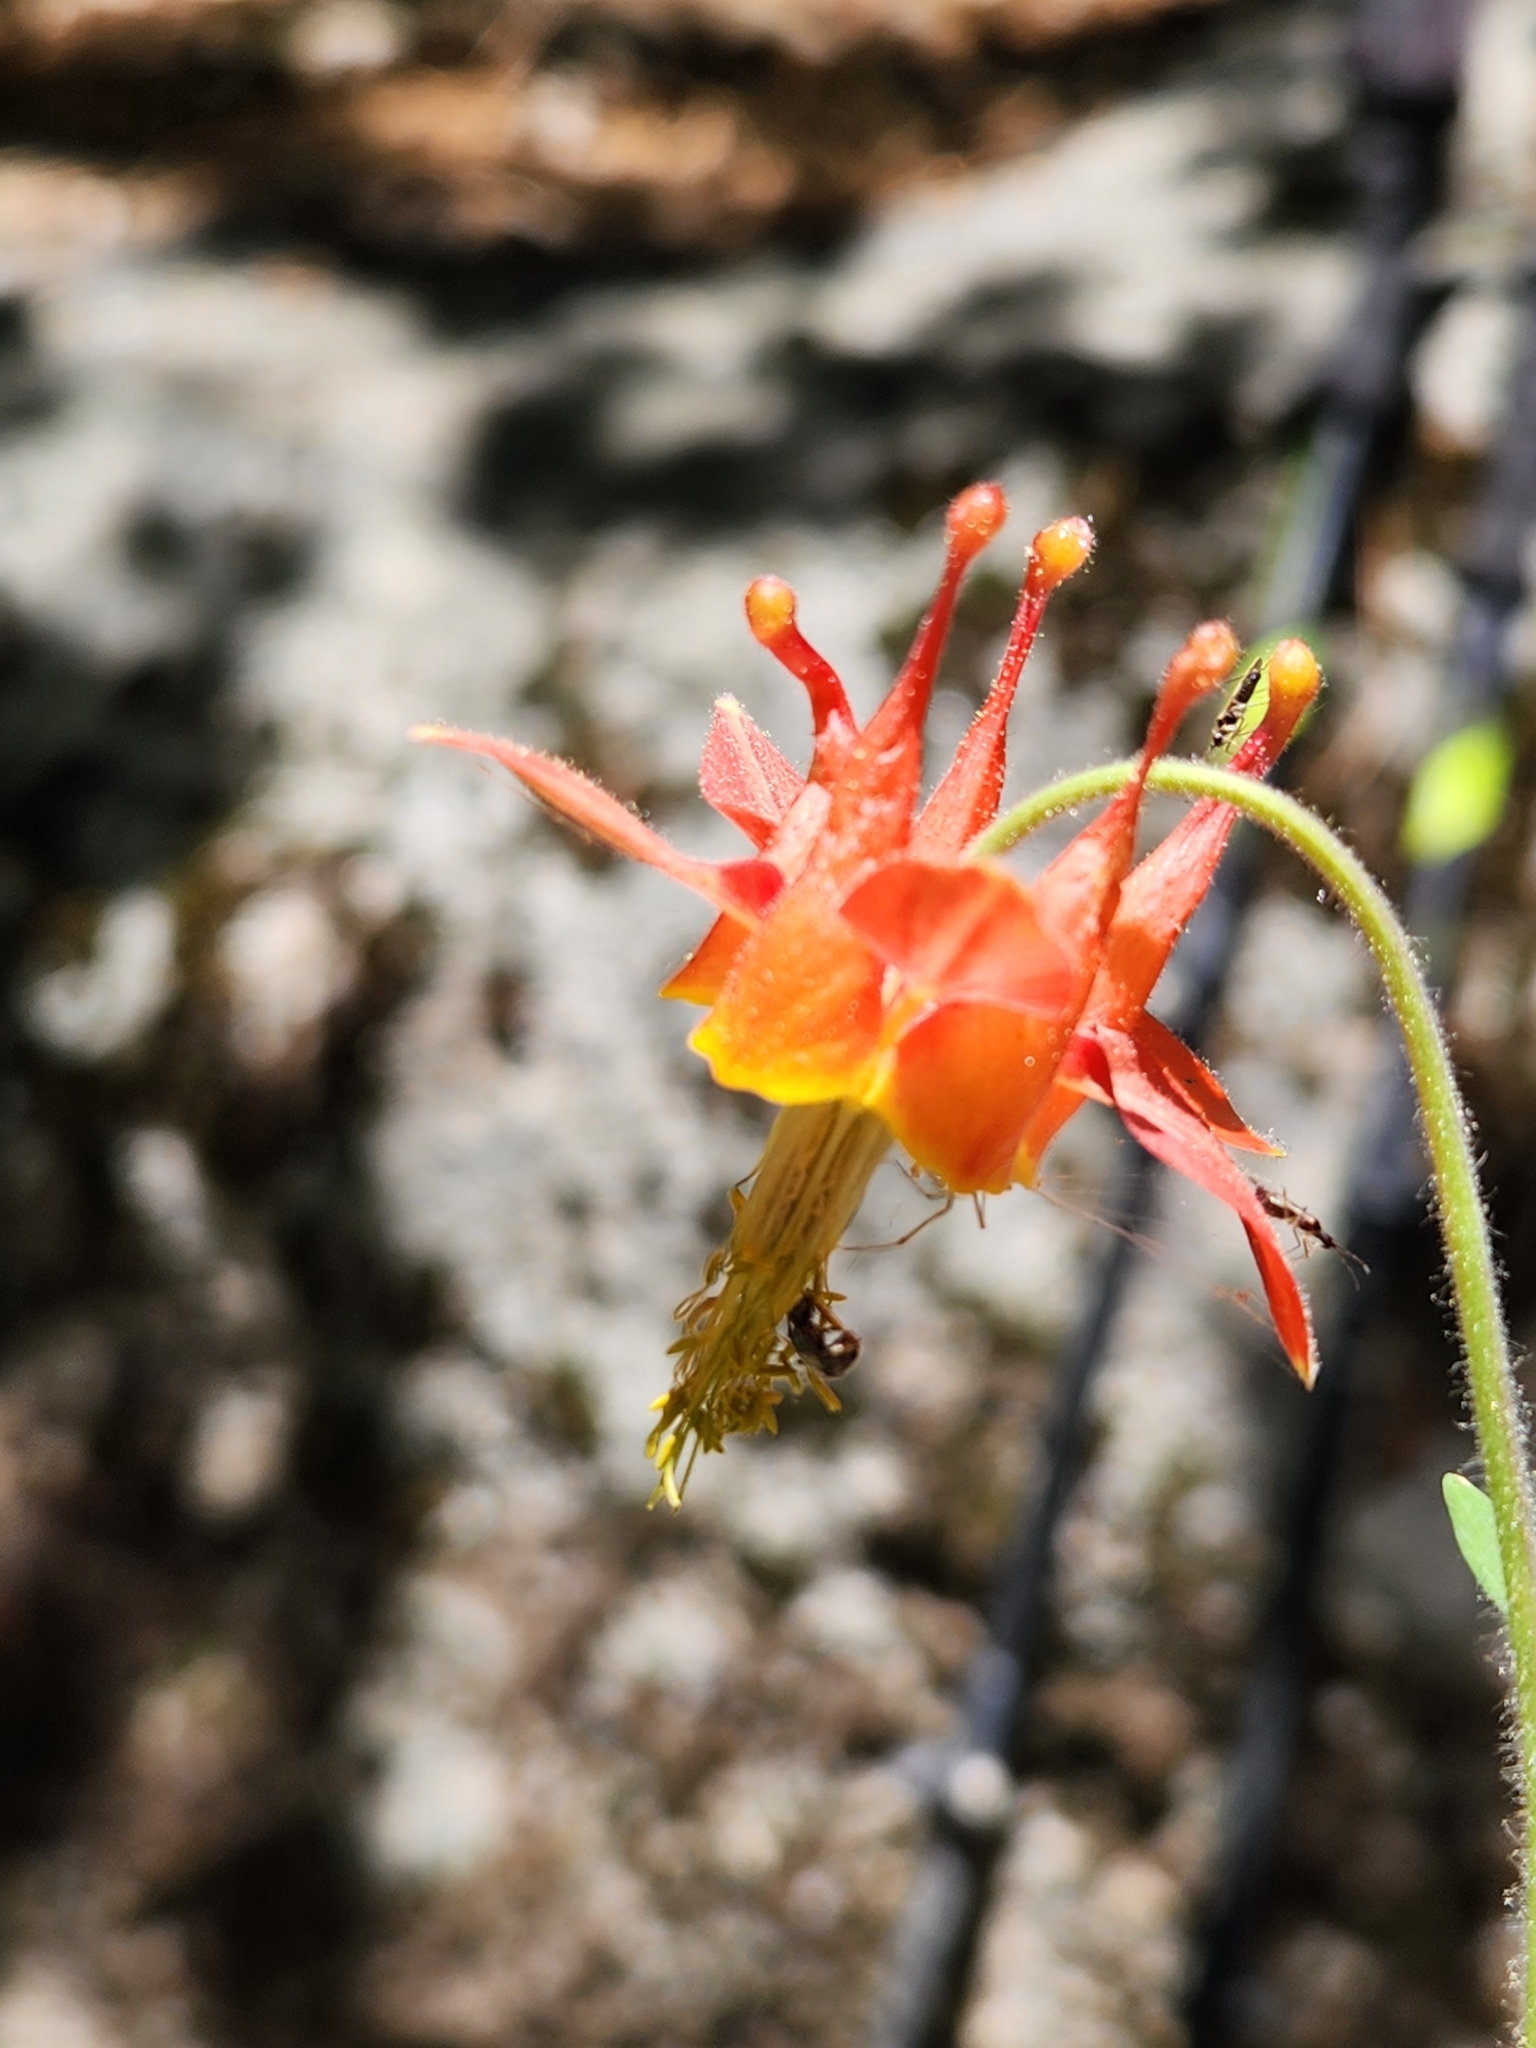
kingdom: Plantae
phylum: Tracheophyta
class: Magnoliopsida
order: Ranunculales
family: Ranunculaceae
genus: Aquilegia
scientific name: Aquilegia formosa
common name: Sitka columbine
